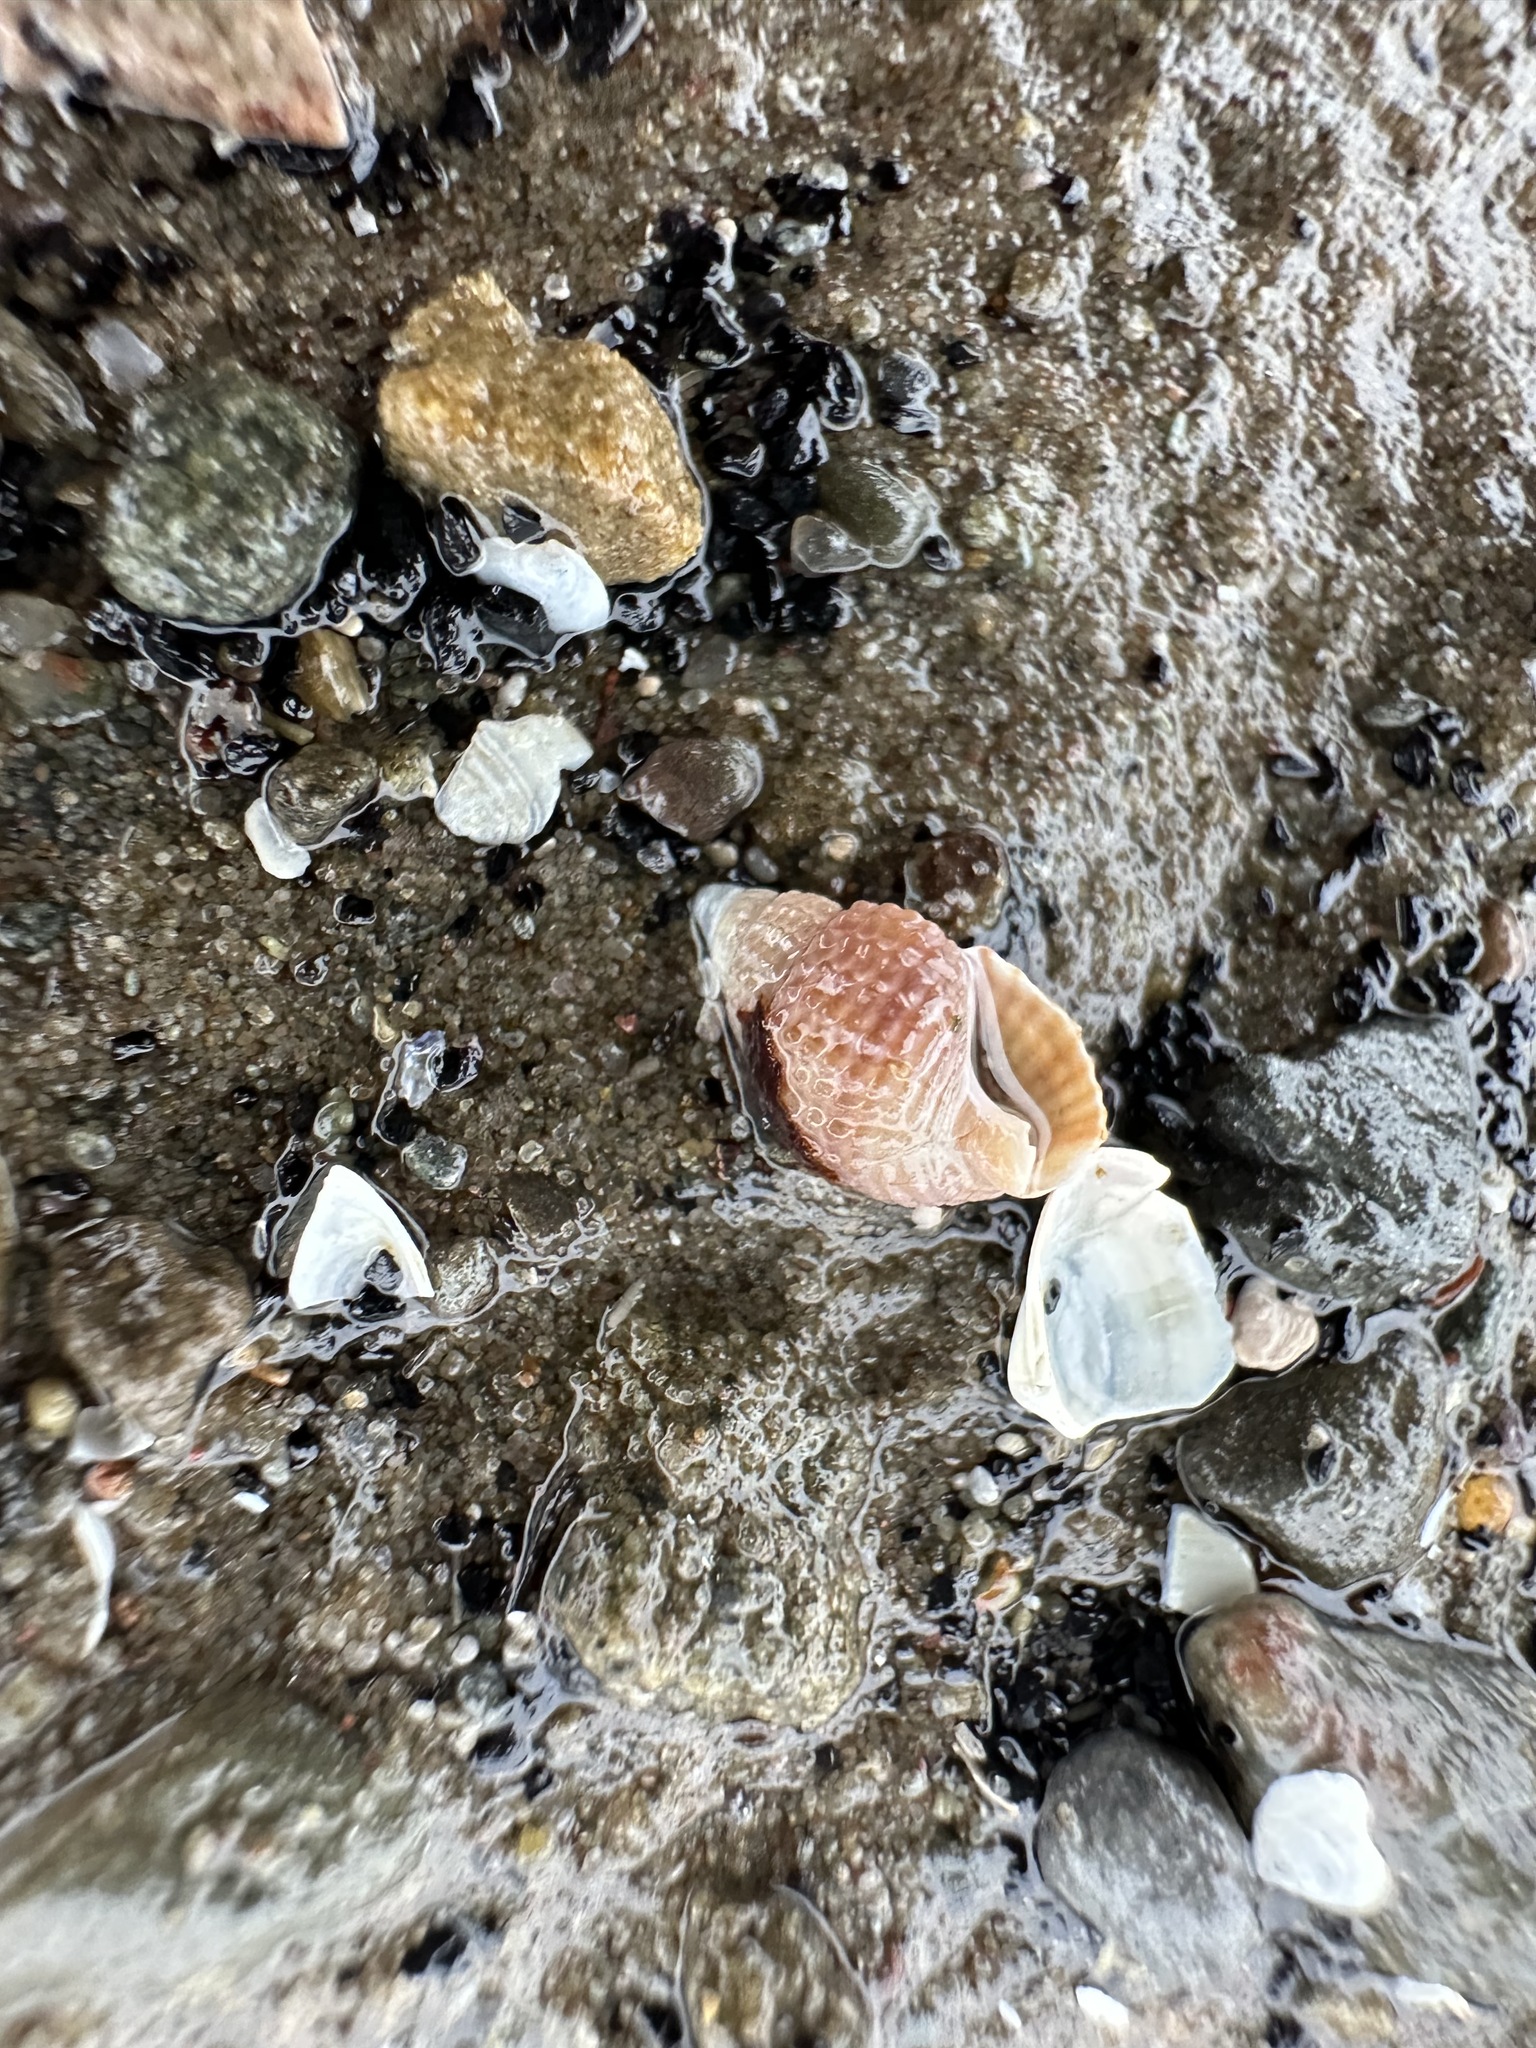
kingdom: Animalia
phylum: Mollusca
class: Gastropoda
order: Neogastropoda
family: Nassariidae
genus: Ilyanassa
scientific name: Ilyanassa trivittata
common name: Three-line mudsnail
